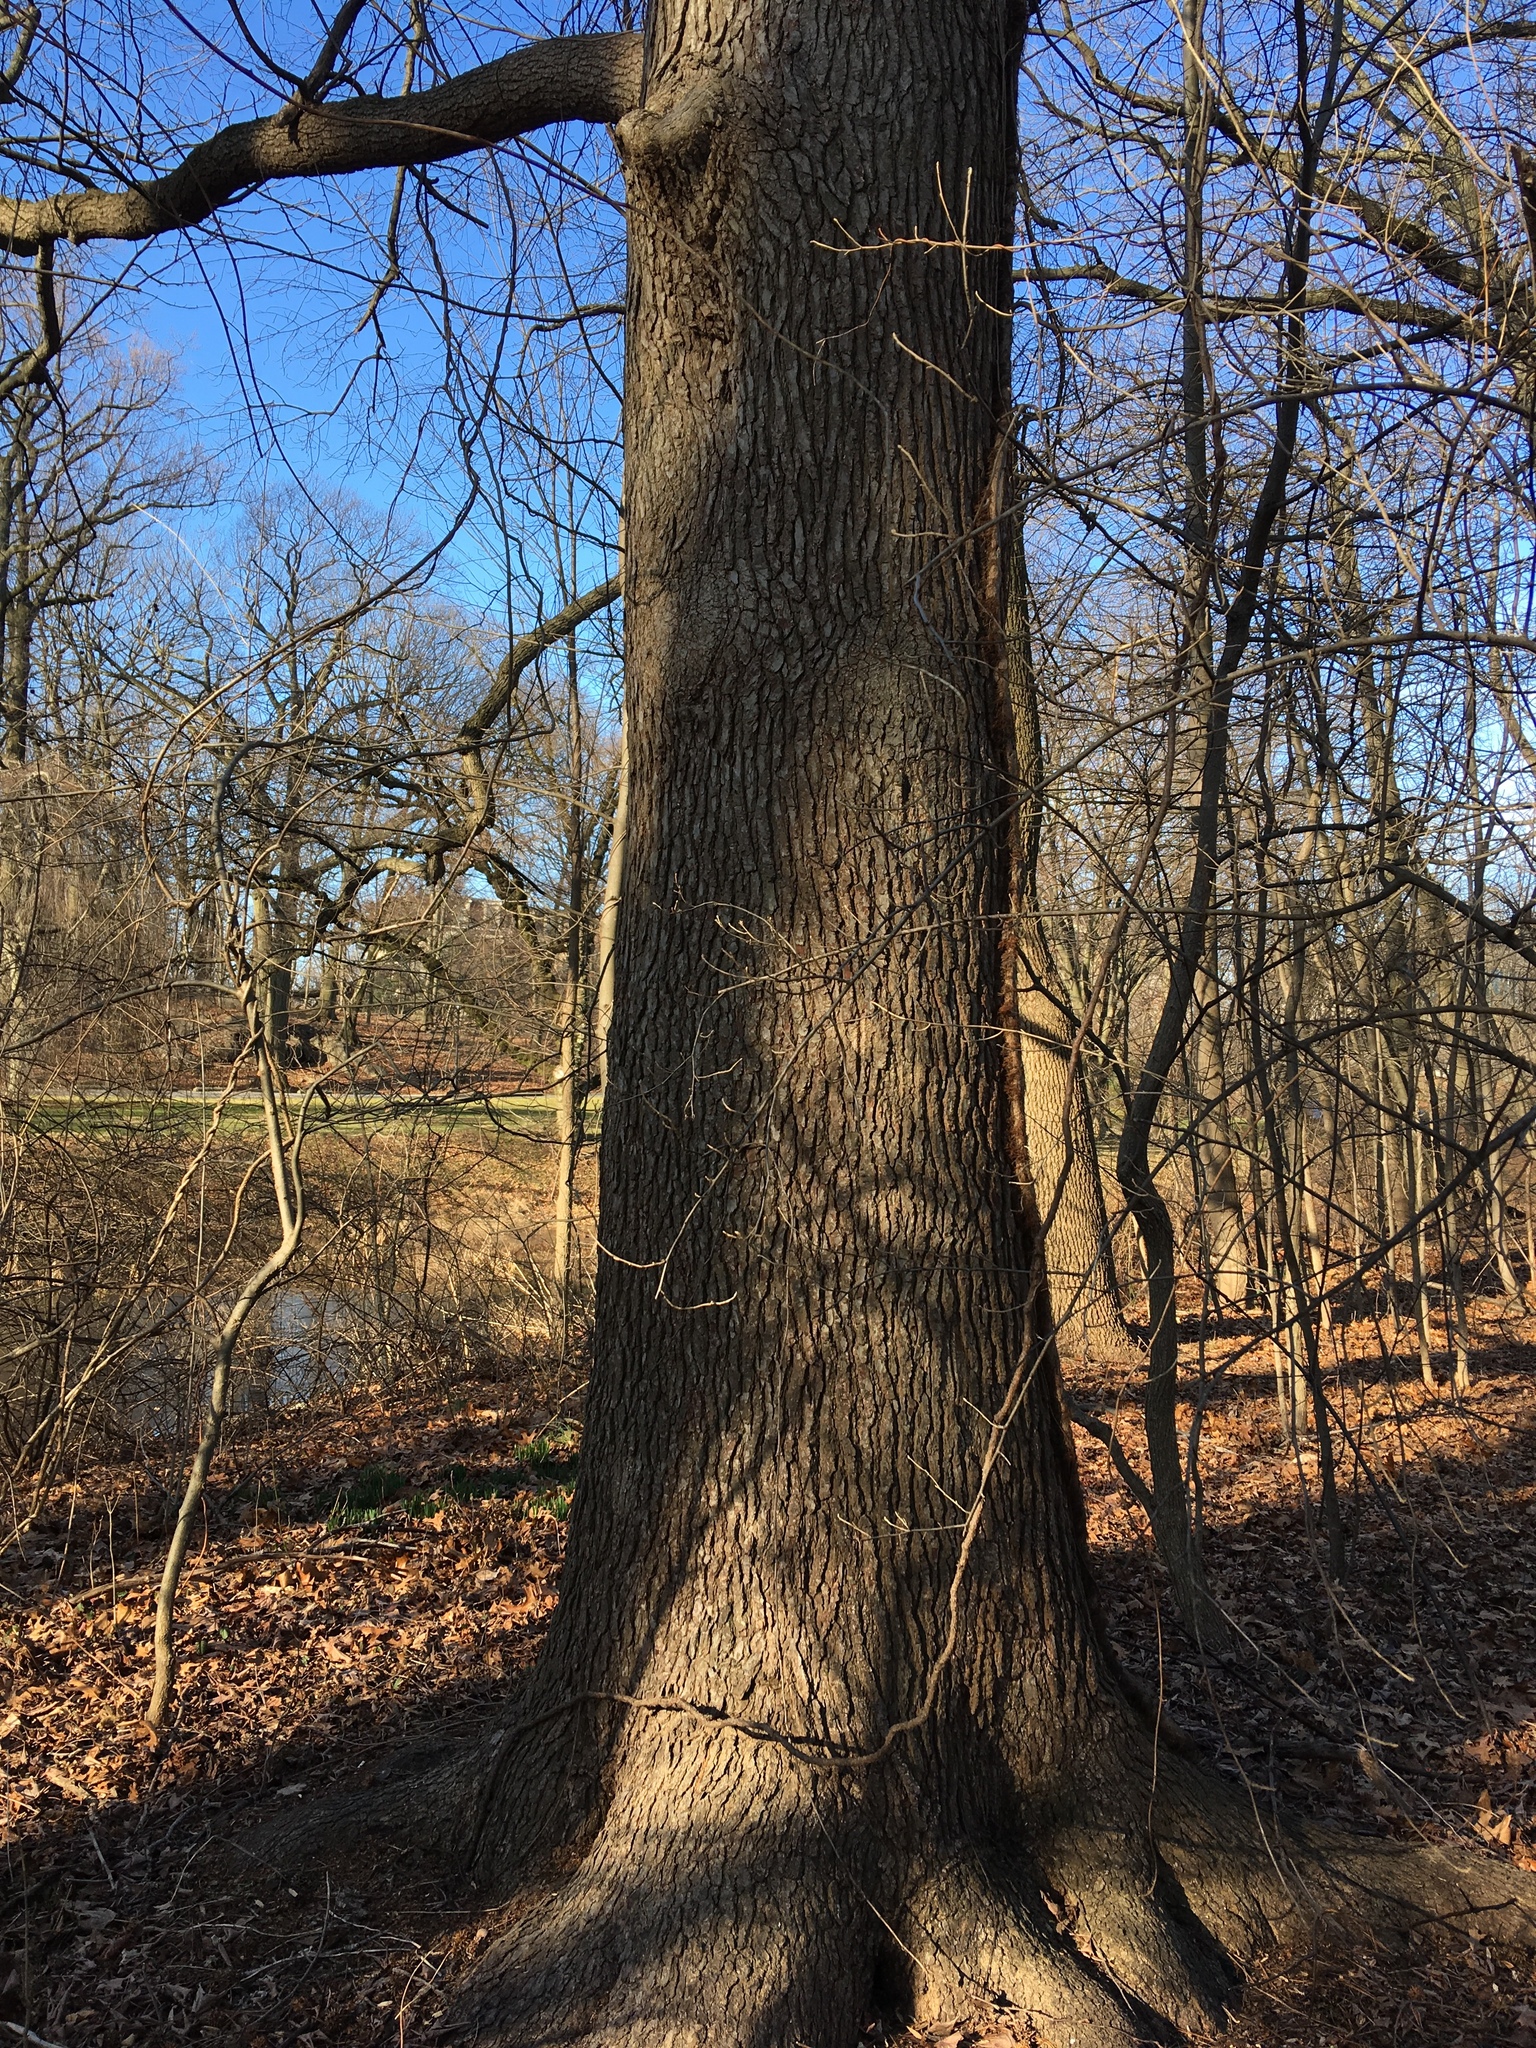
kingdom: Plantae
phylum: Tracheophyta
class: Magnoliopsida
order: Saxifragales
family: Altingiaceae
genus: Liquidambar
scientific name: Liquidambar styraciflua
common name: Sweet gum
